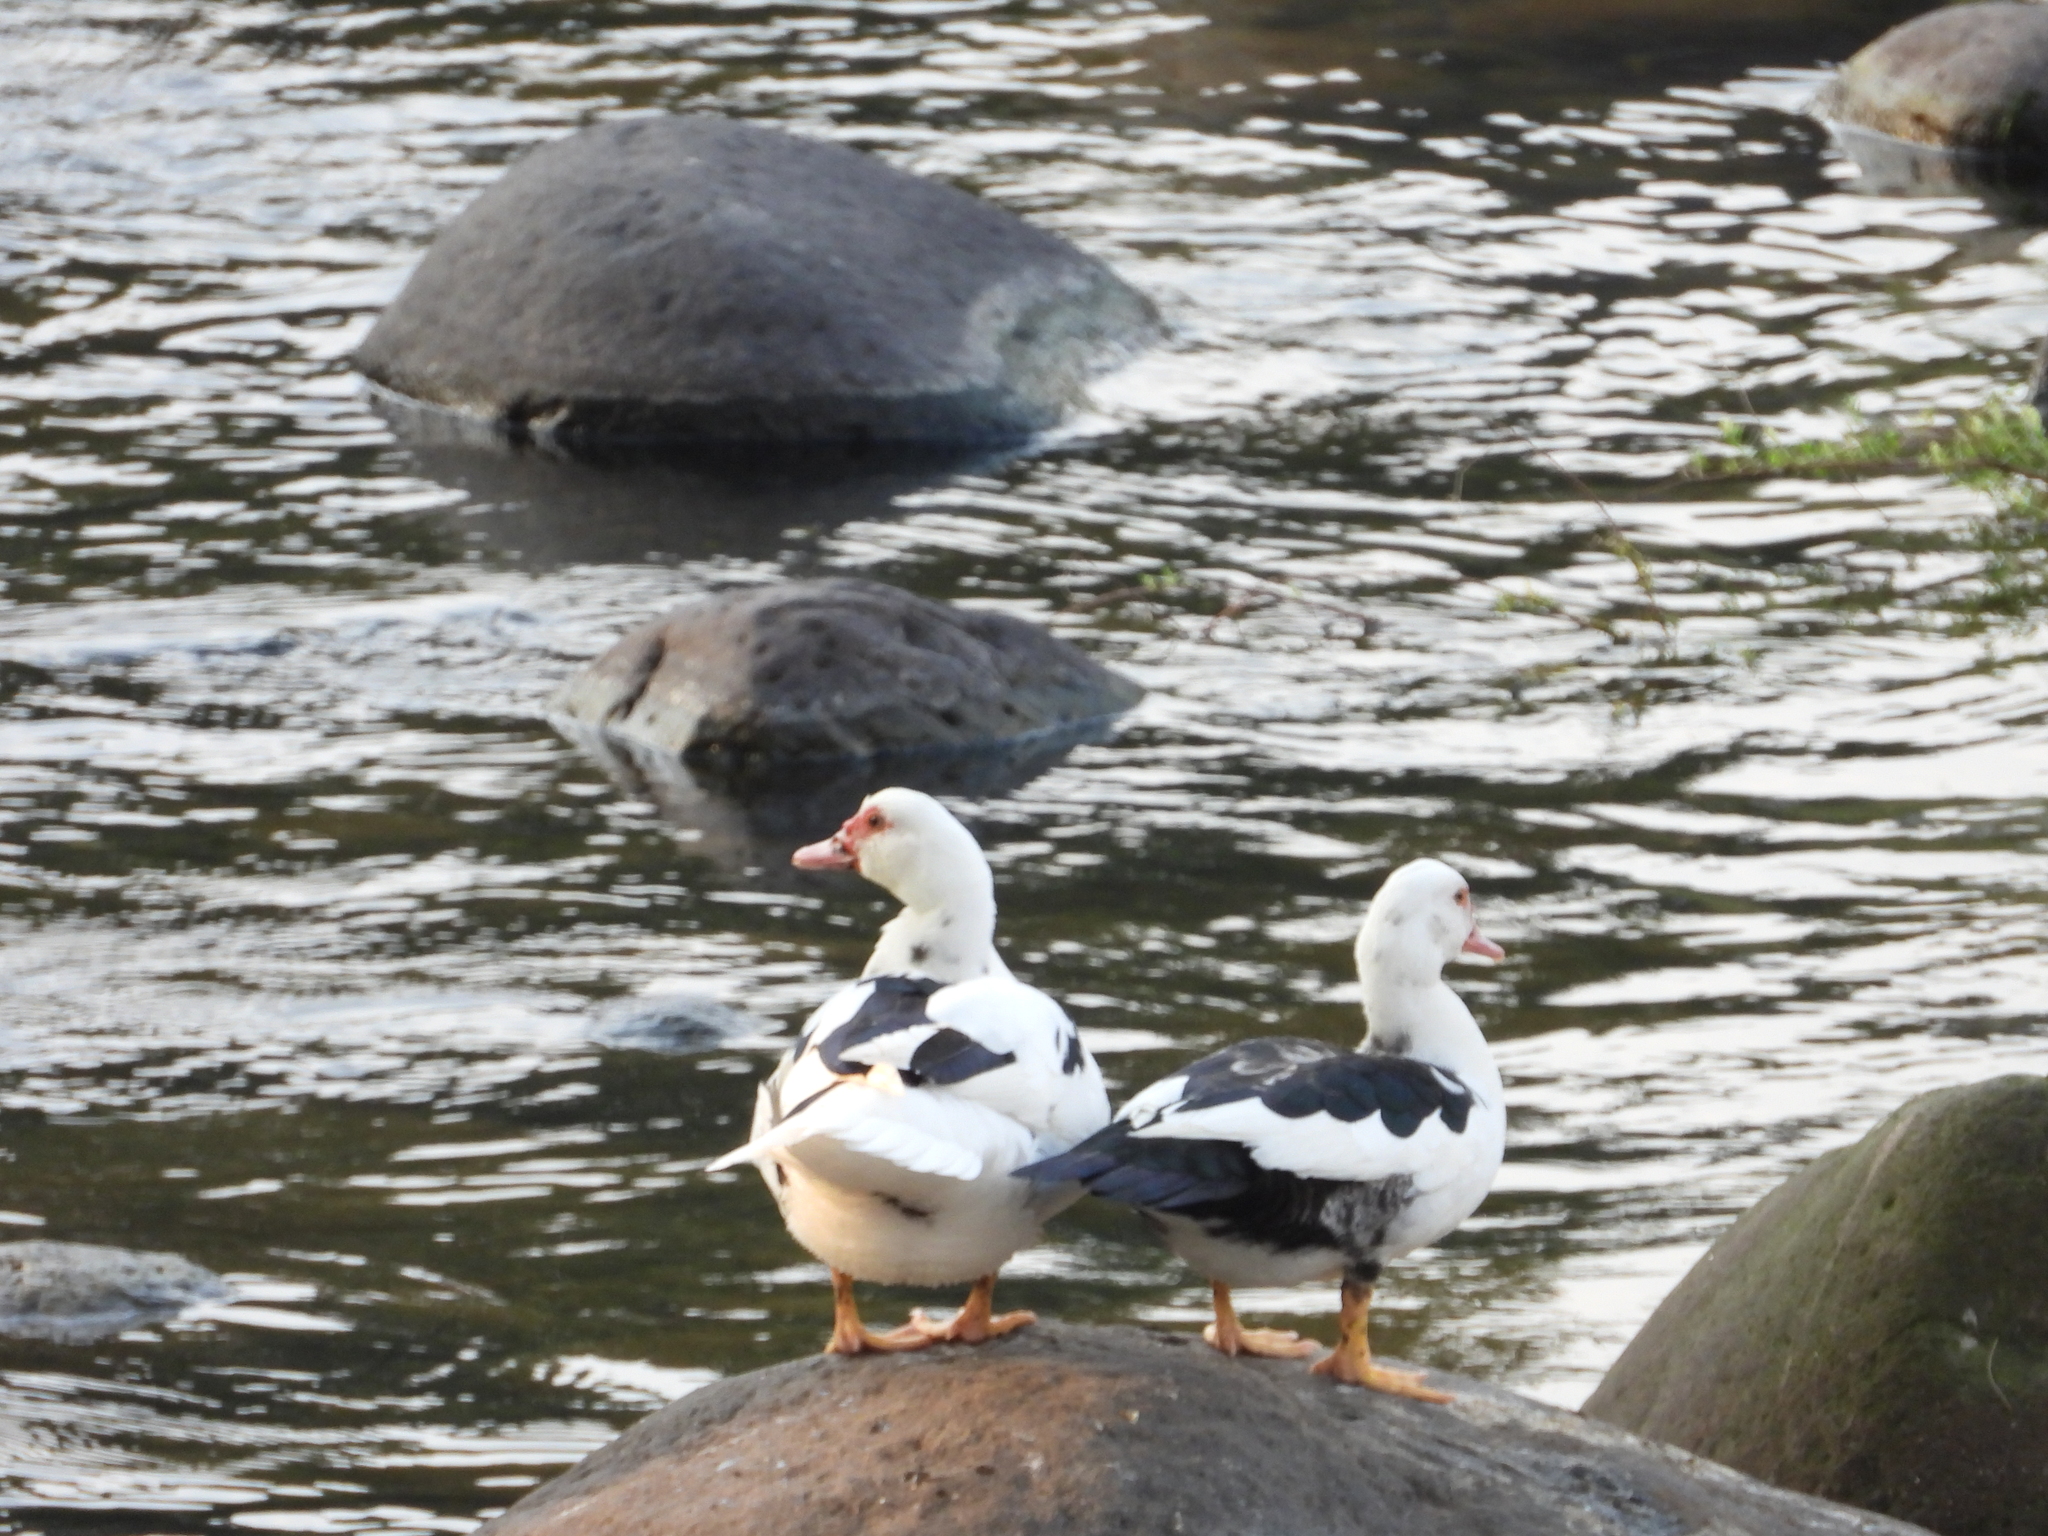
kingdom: Animalia
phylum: Chordata
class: Aves
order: Anseriformes
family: Anatidae
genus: Cairina
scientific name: Cairina moschata
